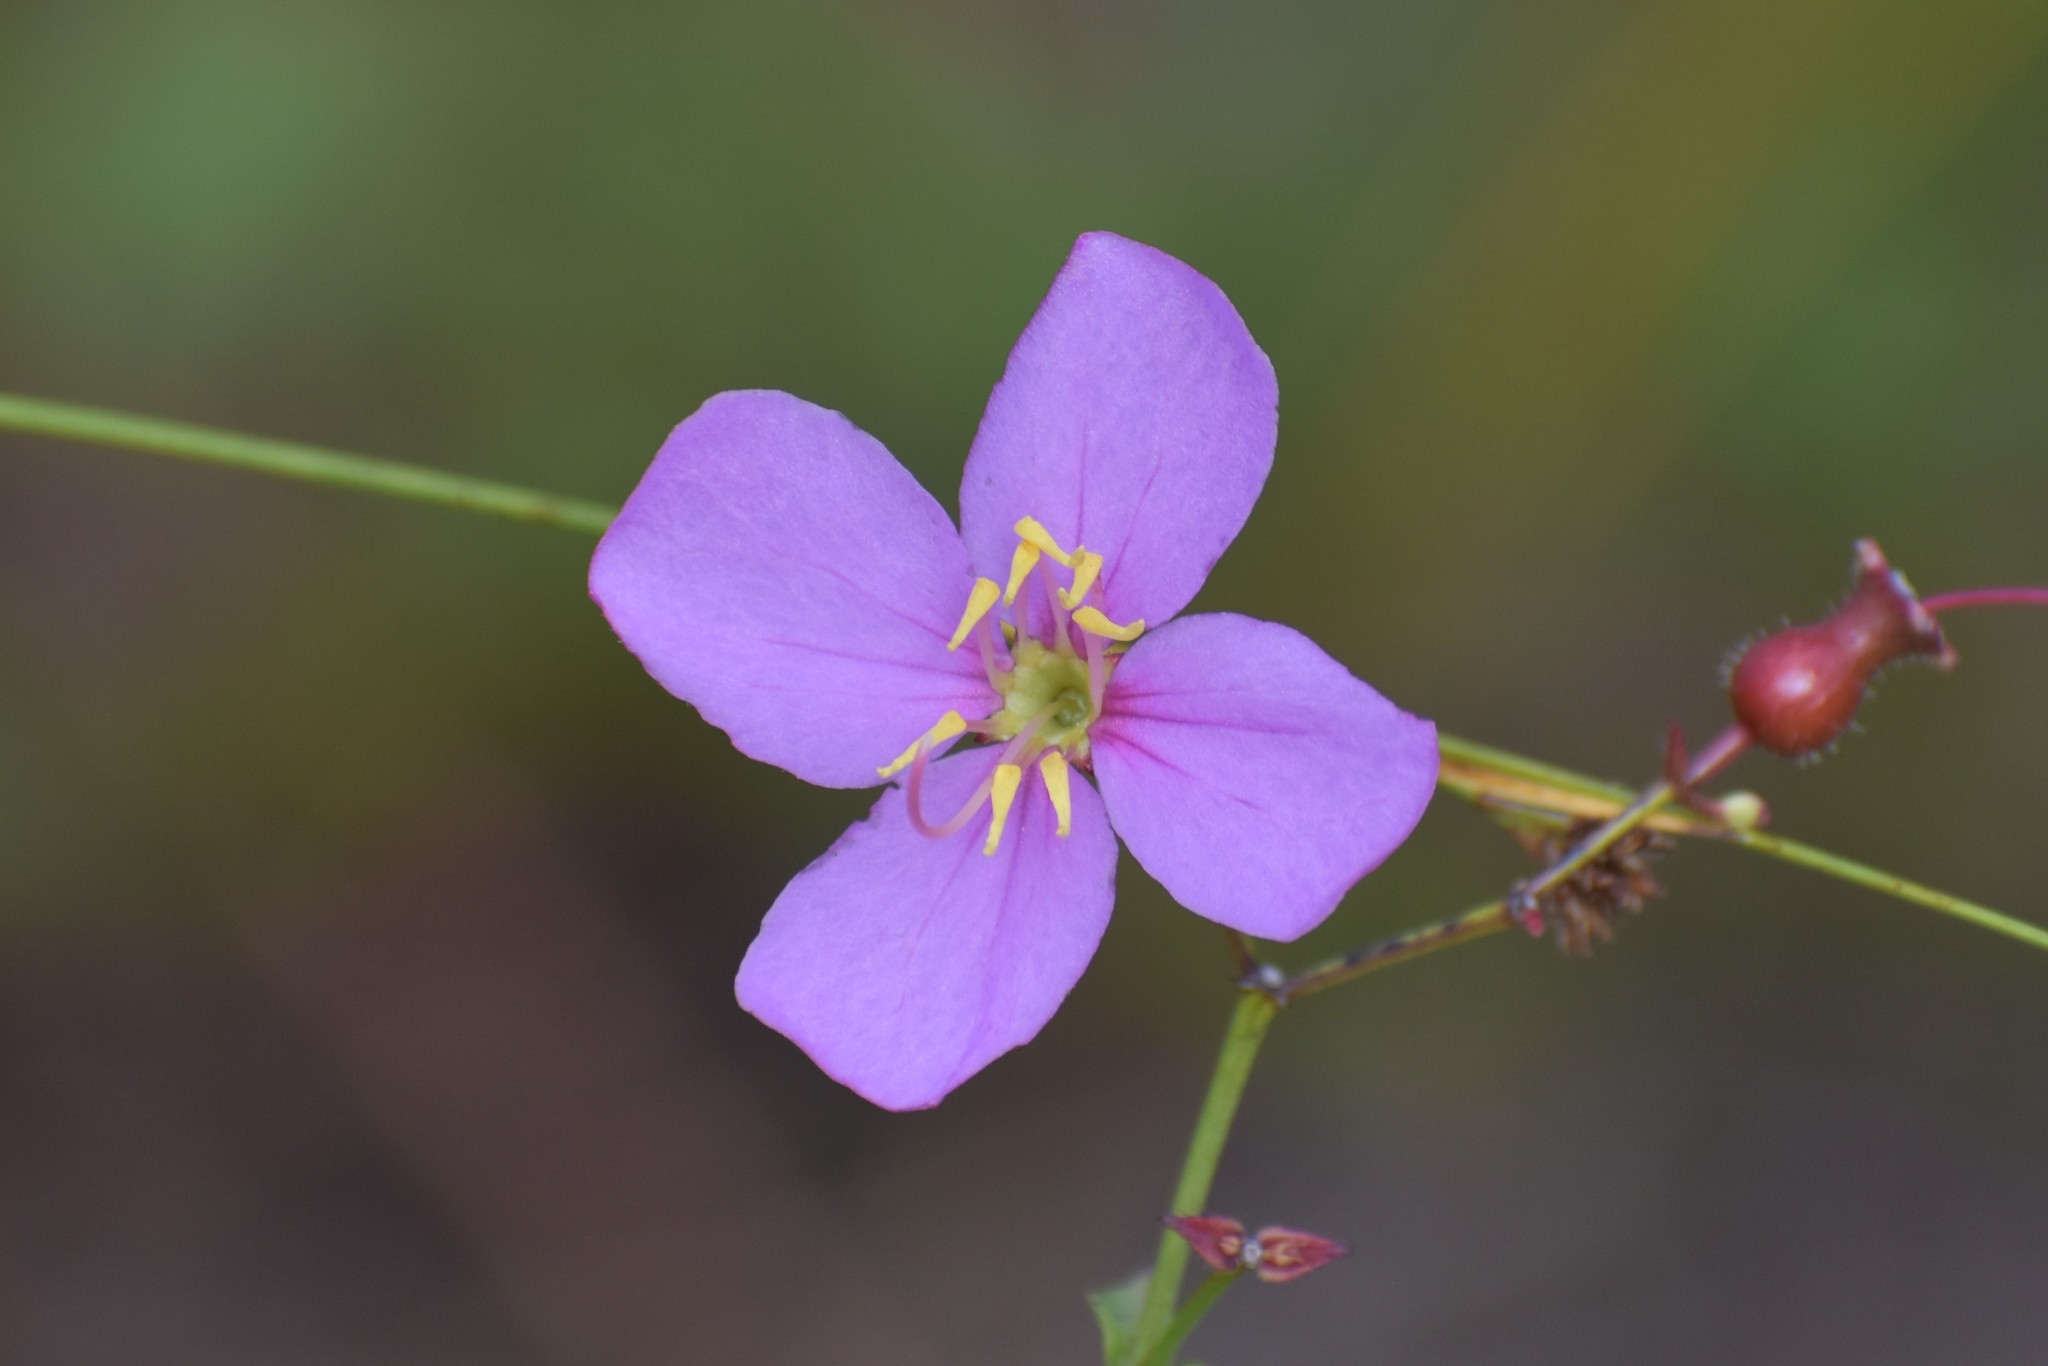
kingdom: Plantae
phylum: Tracheophyta
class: Magnoliopsida
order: Myrtales
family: Melastomataceae
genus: Rhexia
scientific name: Rhexia alifanus
